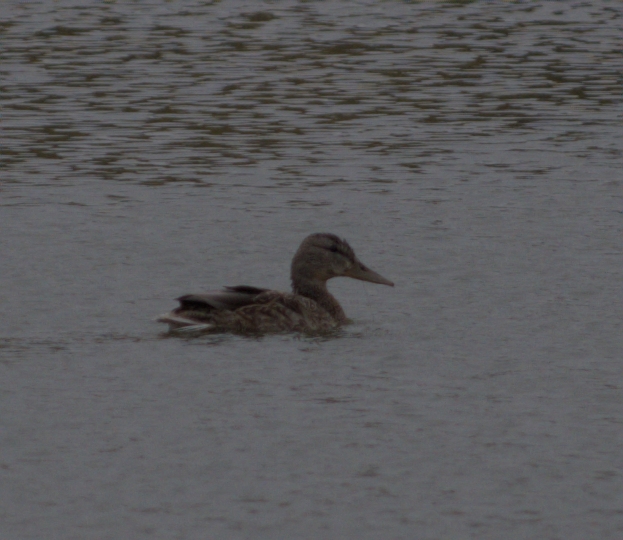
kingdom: Animalia
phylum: Chordata
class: Aves
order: Anseriformes
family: Anatidae
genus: Anas
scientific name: Anas platyrhynchos
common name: Mallard
